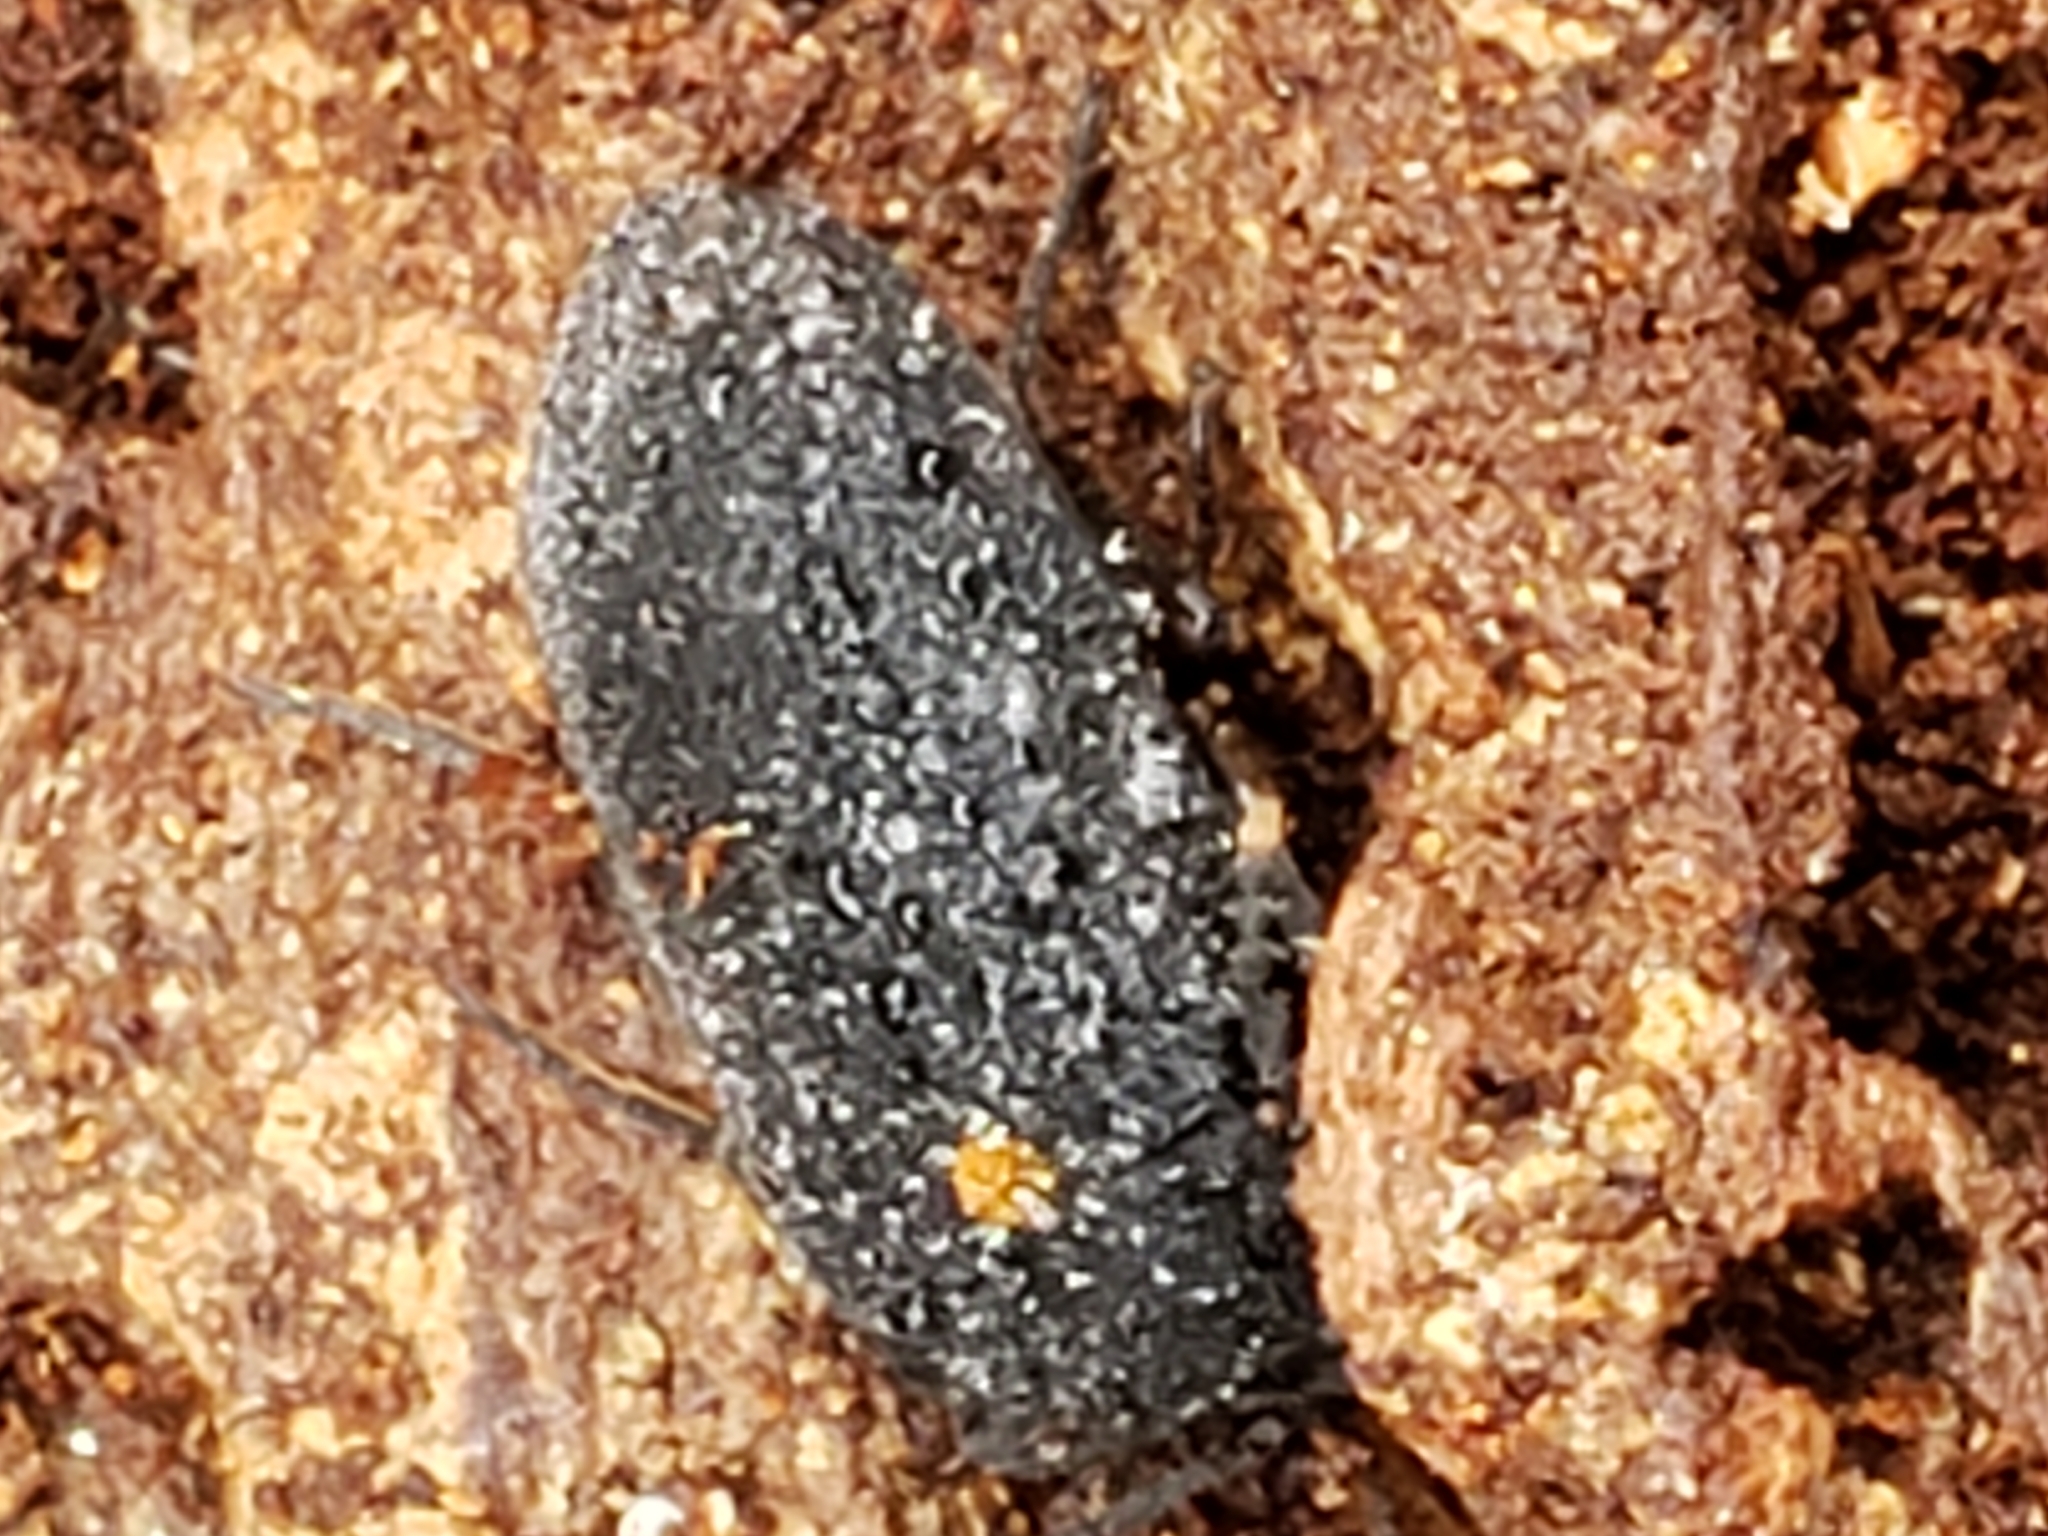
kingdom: Animalia
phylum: Arthropoda
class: Insecta
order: Coleoptera
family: Tetratomidae
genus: Penthe
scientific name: Penthe obliquata
